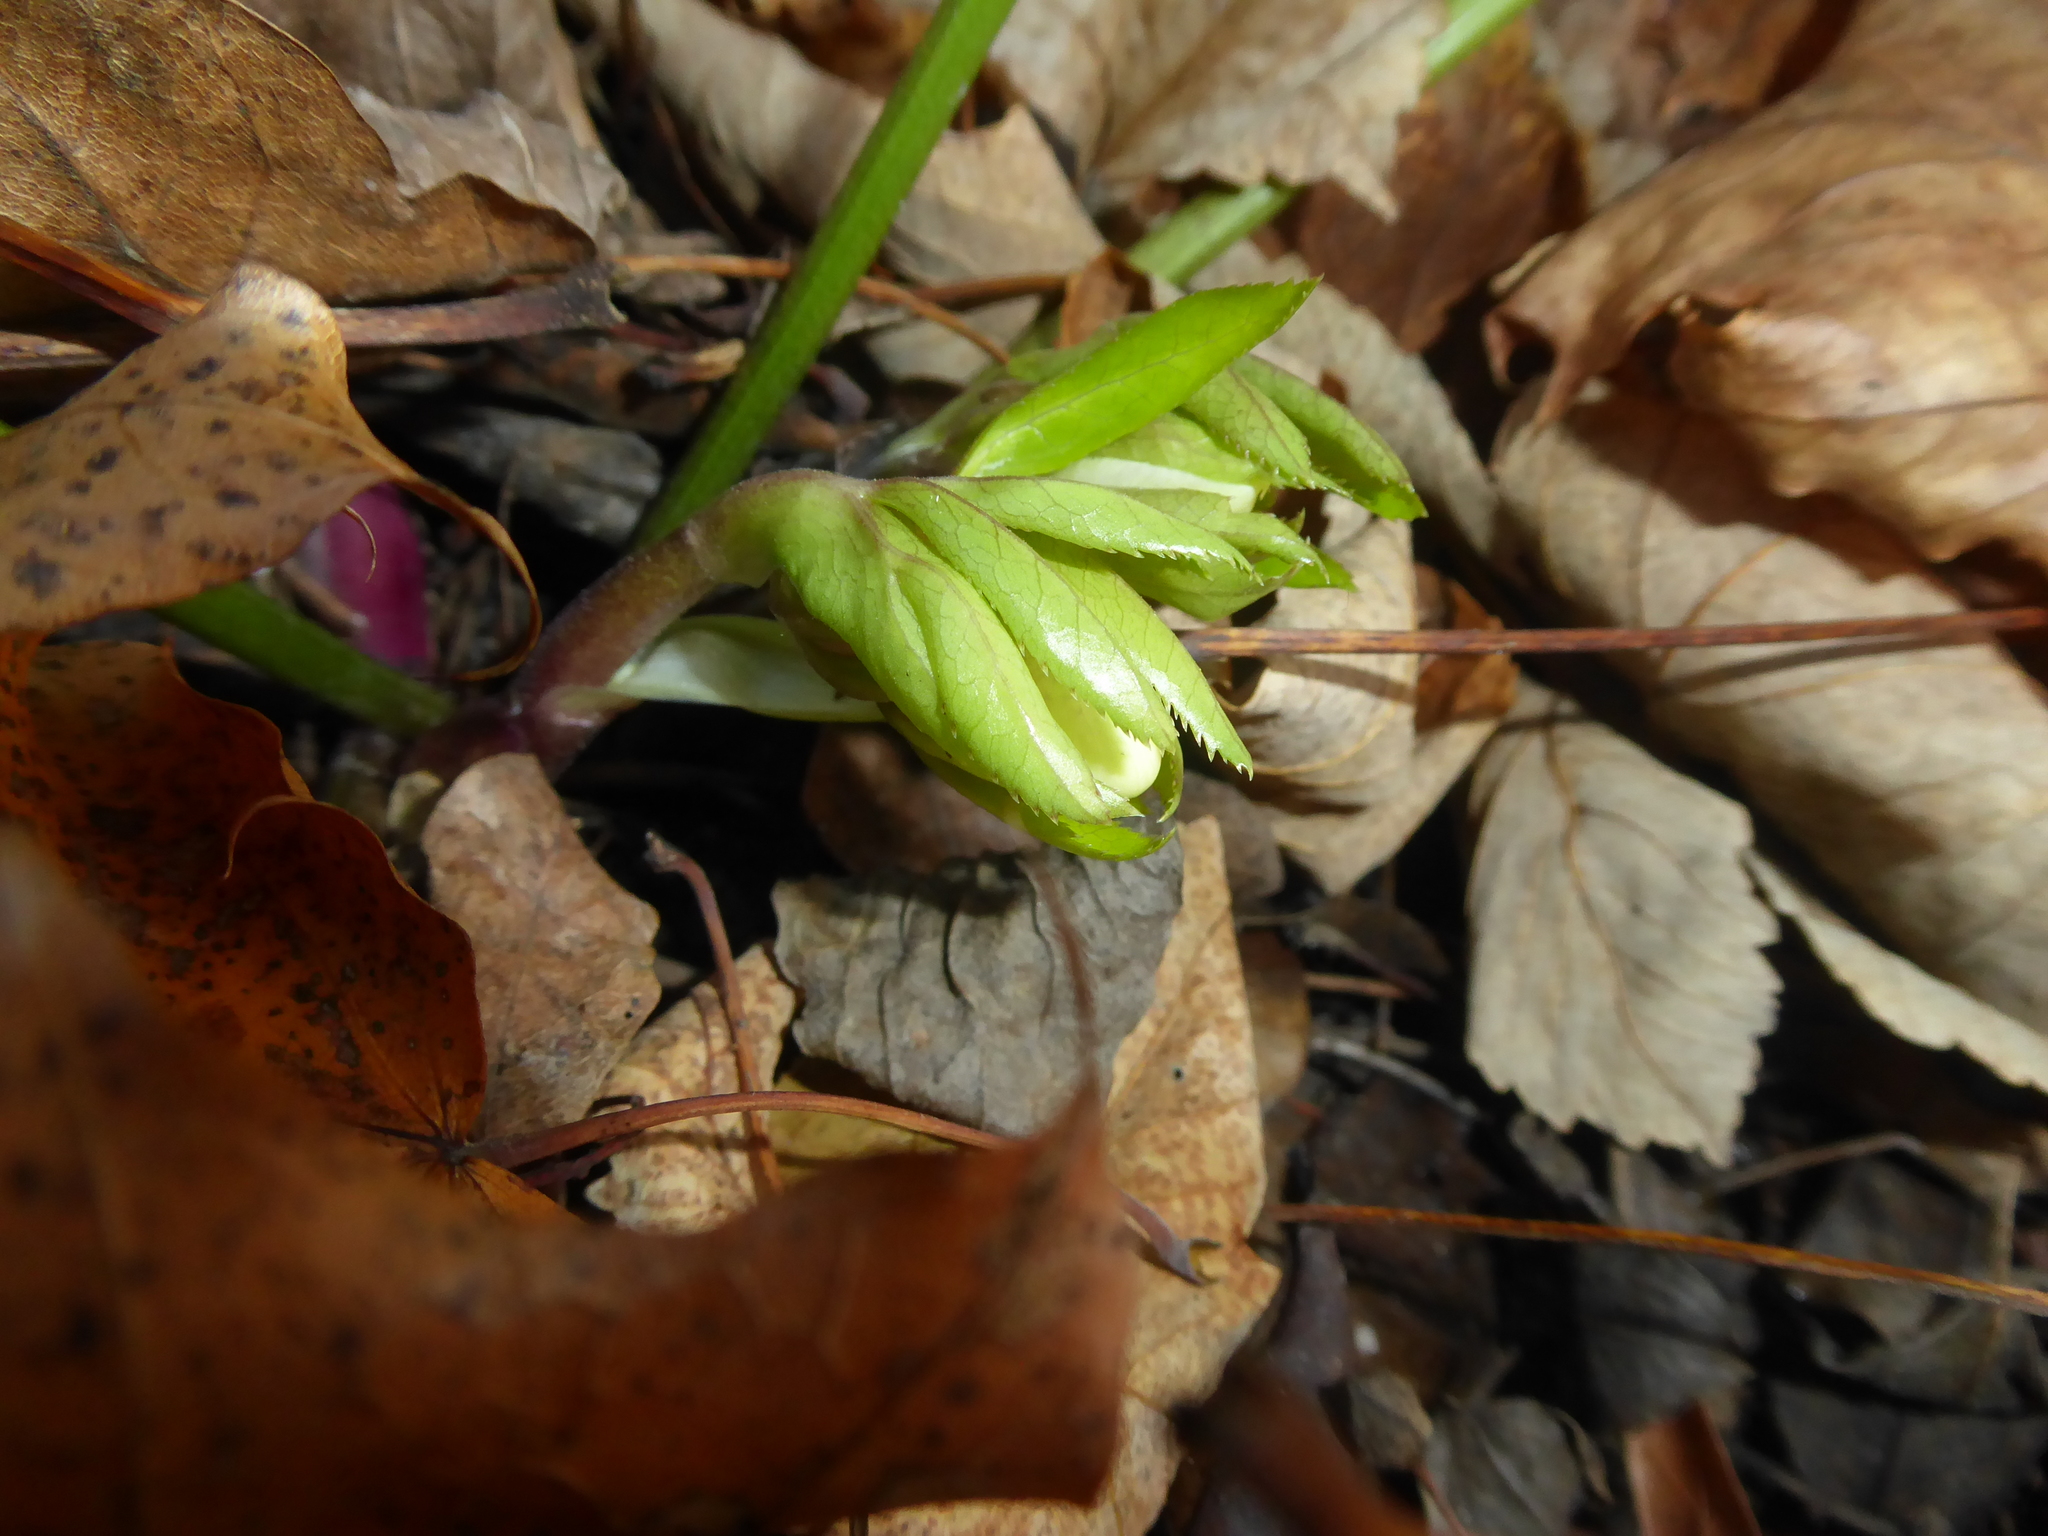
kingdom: Plantae
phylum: Tracheophyta
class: Magnoliopsida
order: Ranunculales
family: Ranunculaceae
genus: Helleborus
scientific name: Helleborus hybridus
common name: Hybrid lenten-rose
